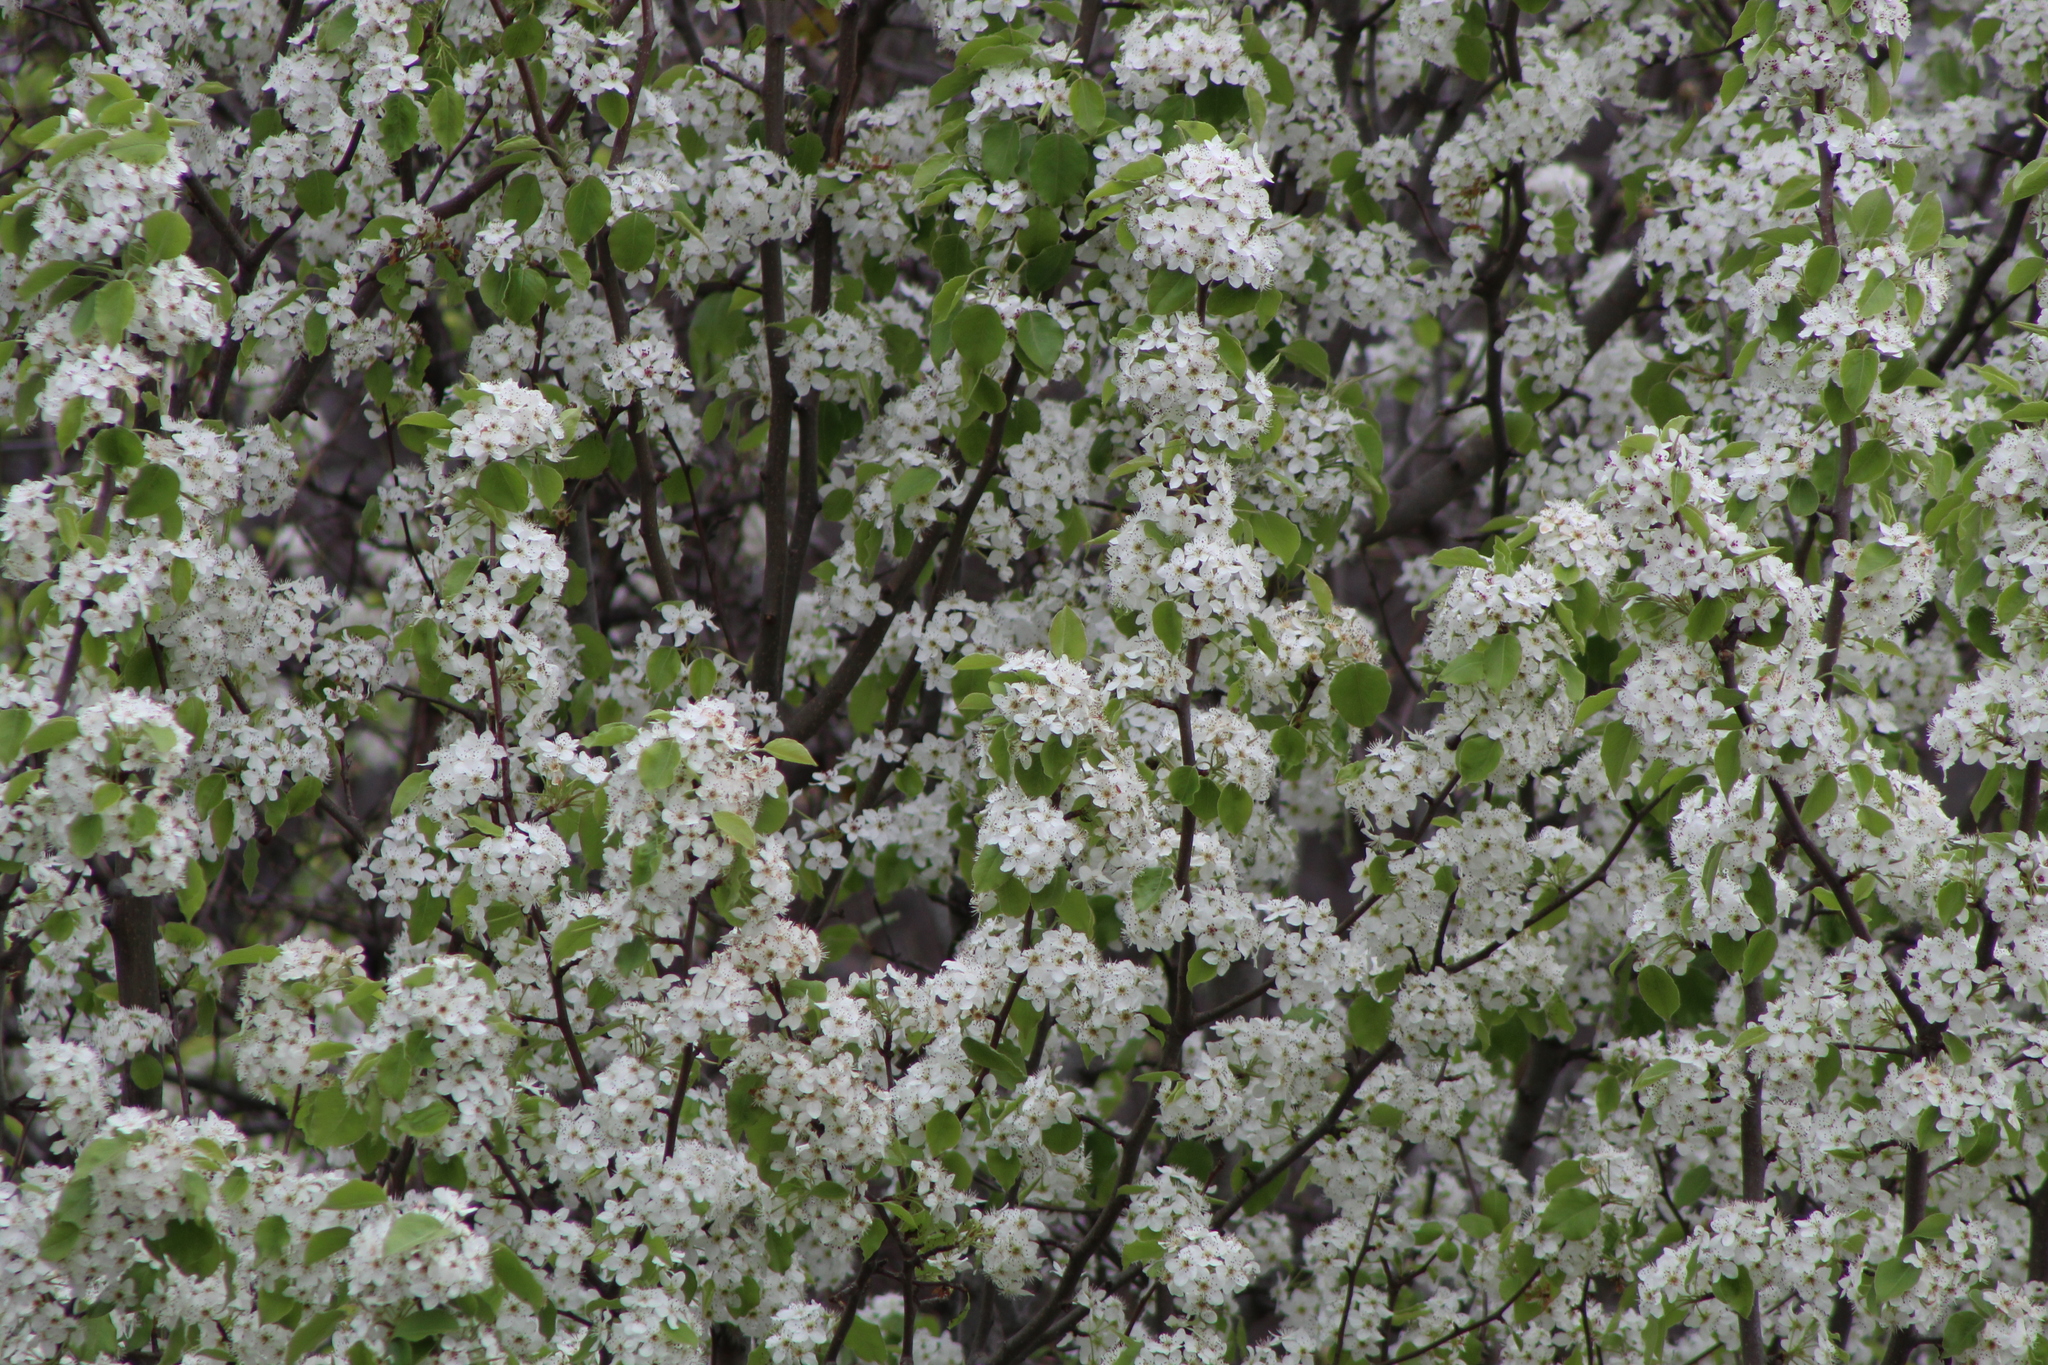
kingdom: Plantae
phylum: Tracheophyta
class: Magnoliopsida
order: Rosales
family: Rosaceae
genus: Pyrus
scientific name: Pyrus calleryana
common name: Callery pear
